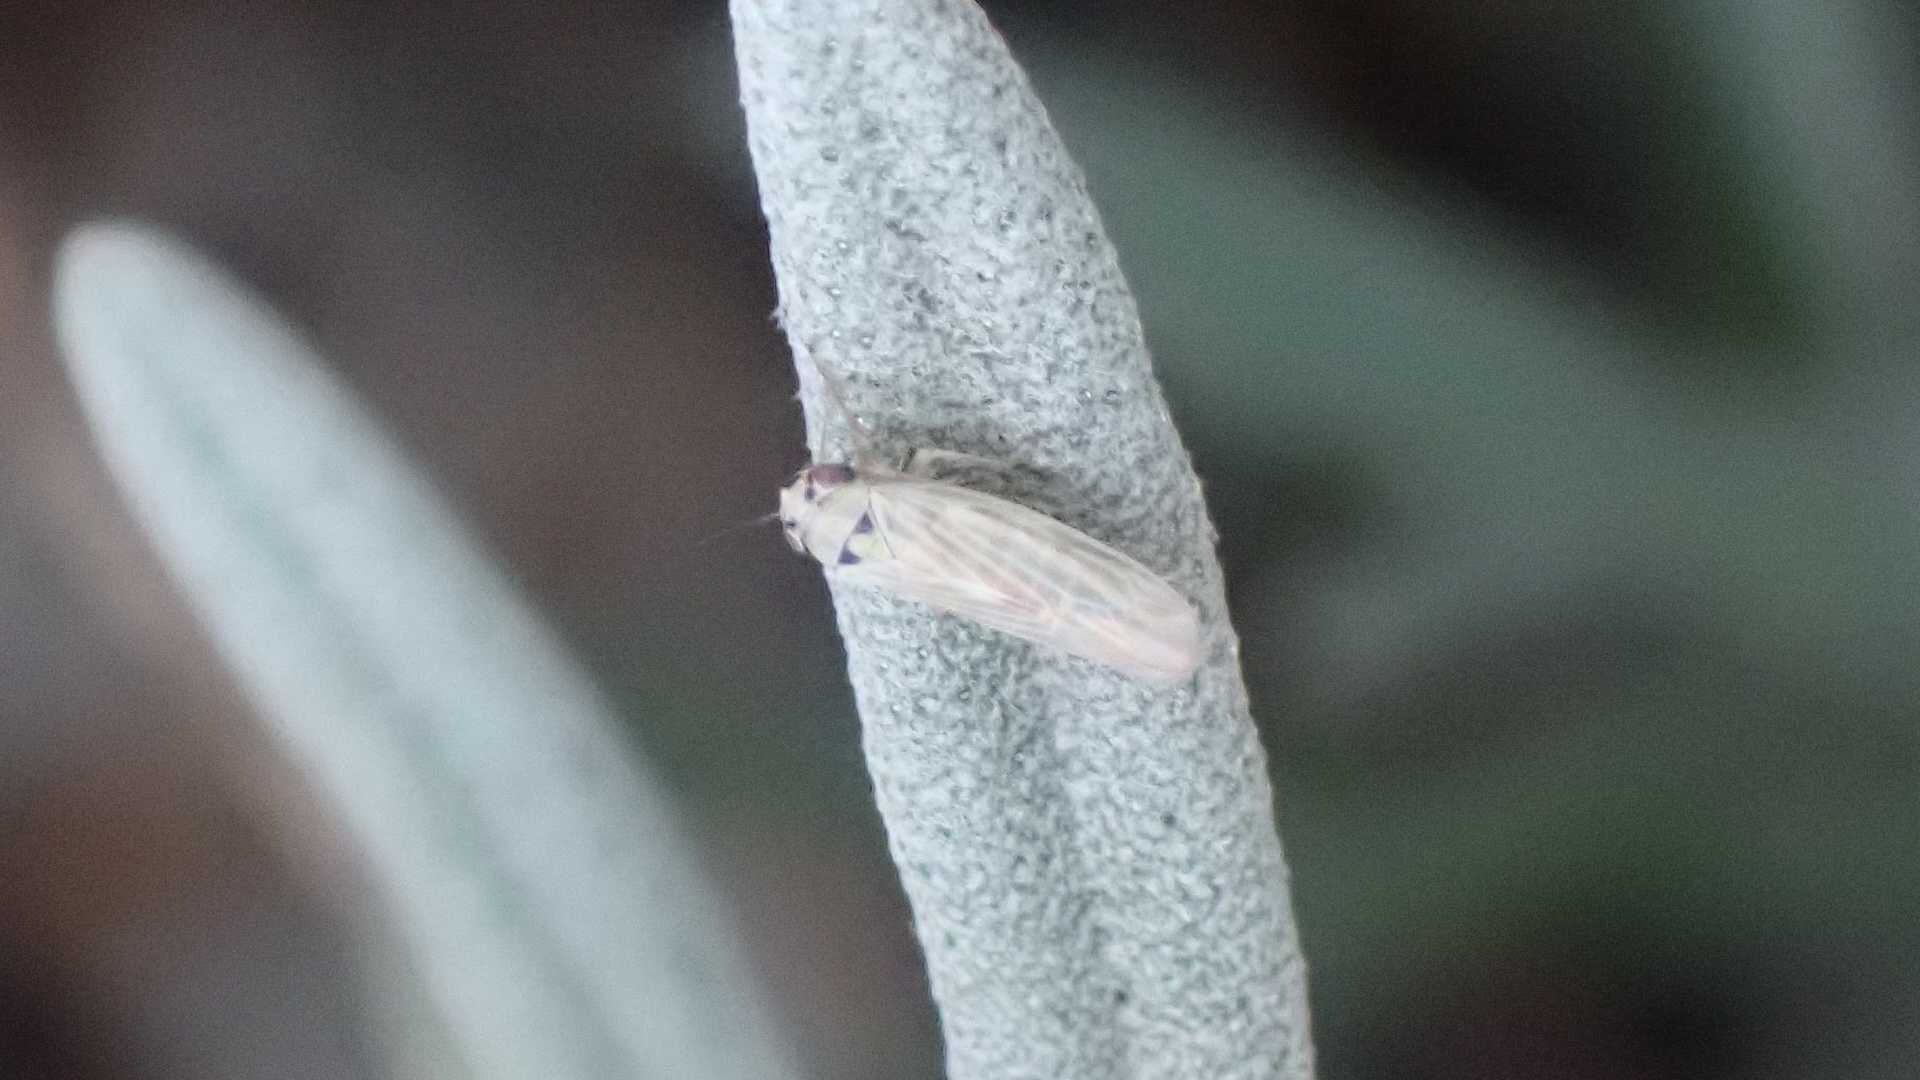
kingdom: Animalia
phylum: Arthropoda
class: Insecta
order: Hemiptera
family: Cicadellidae
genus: Macrosteles
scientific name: Macrosteles
